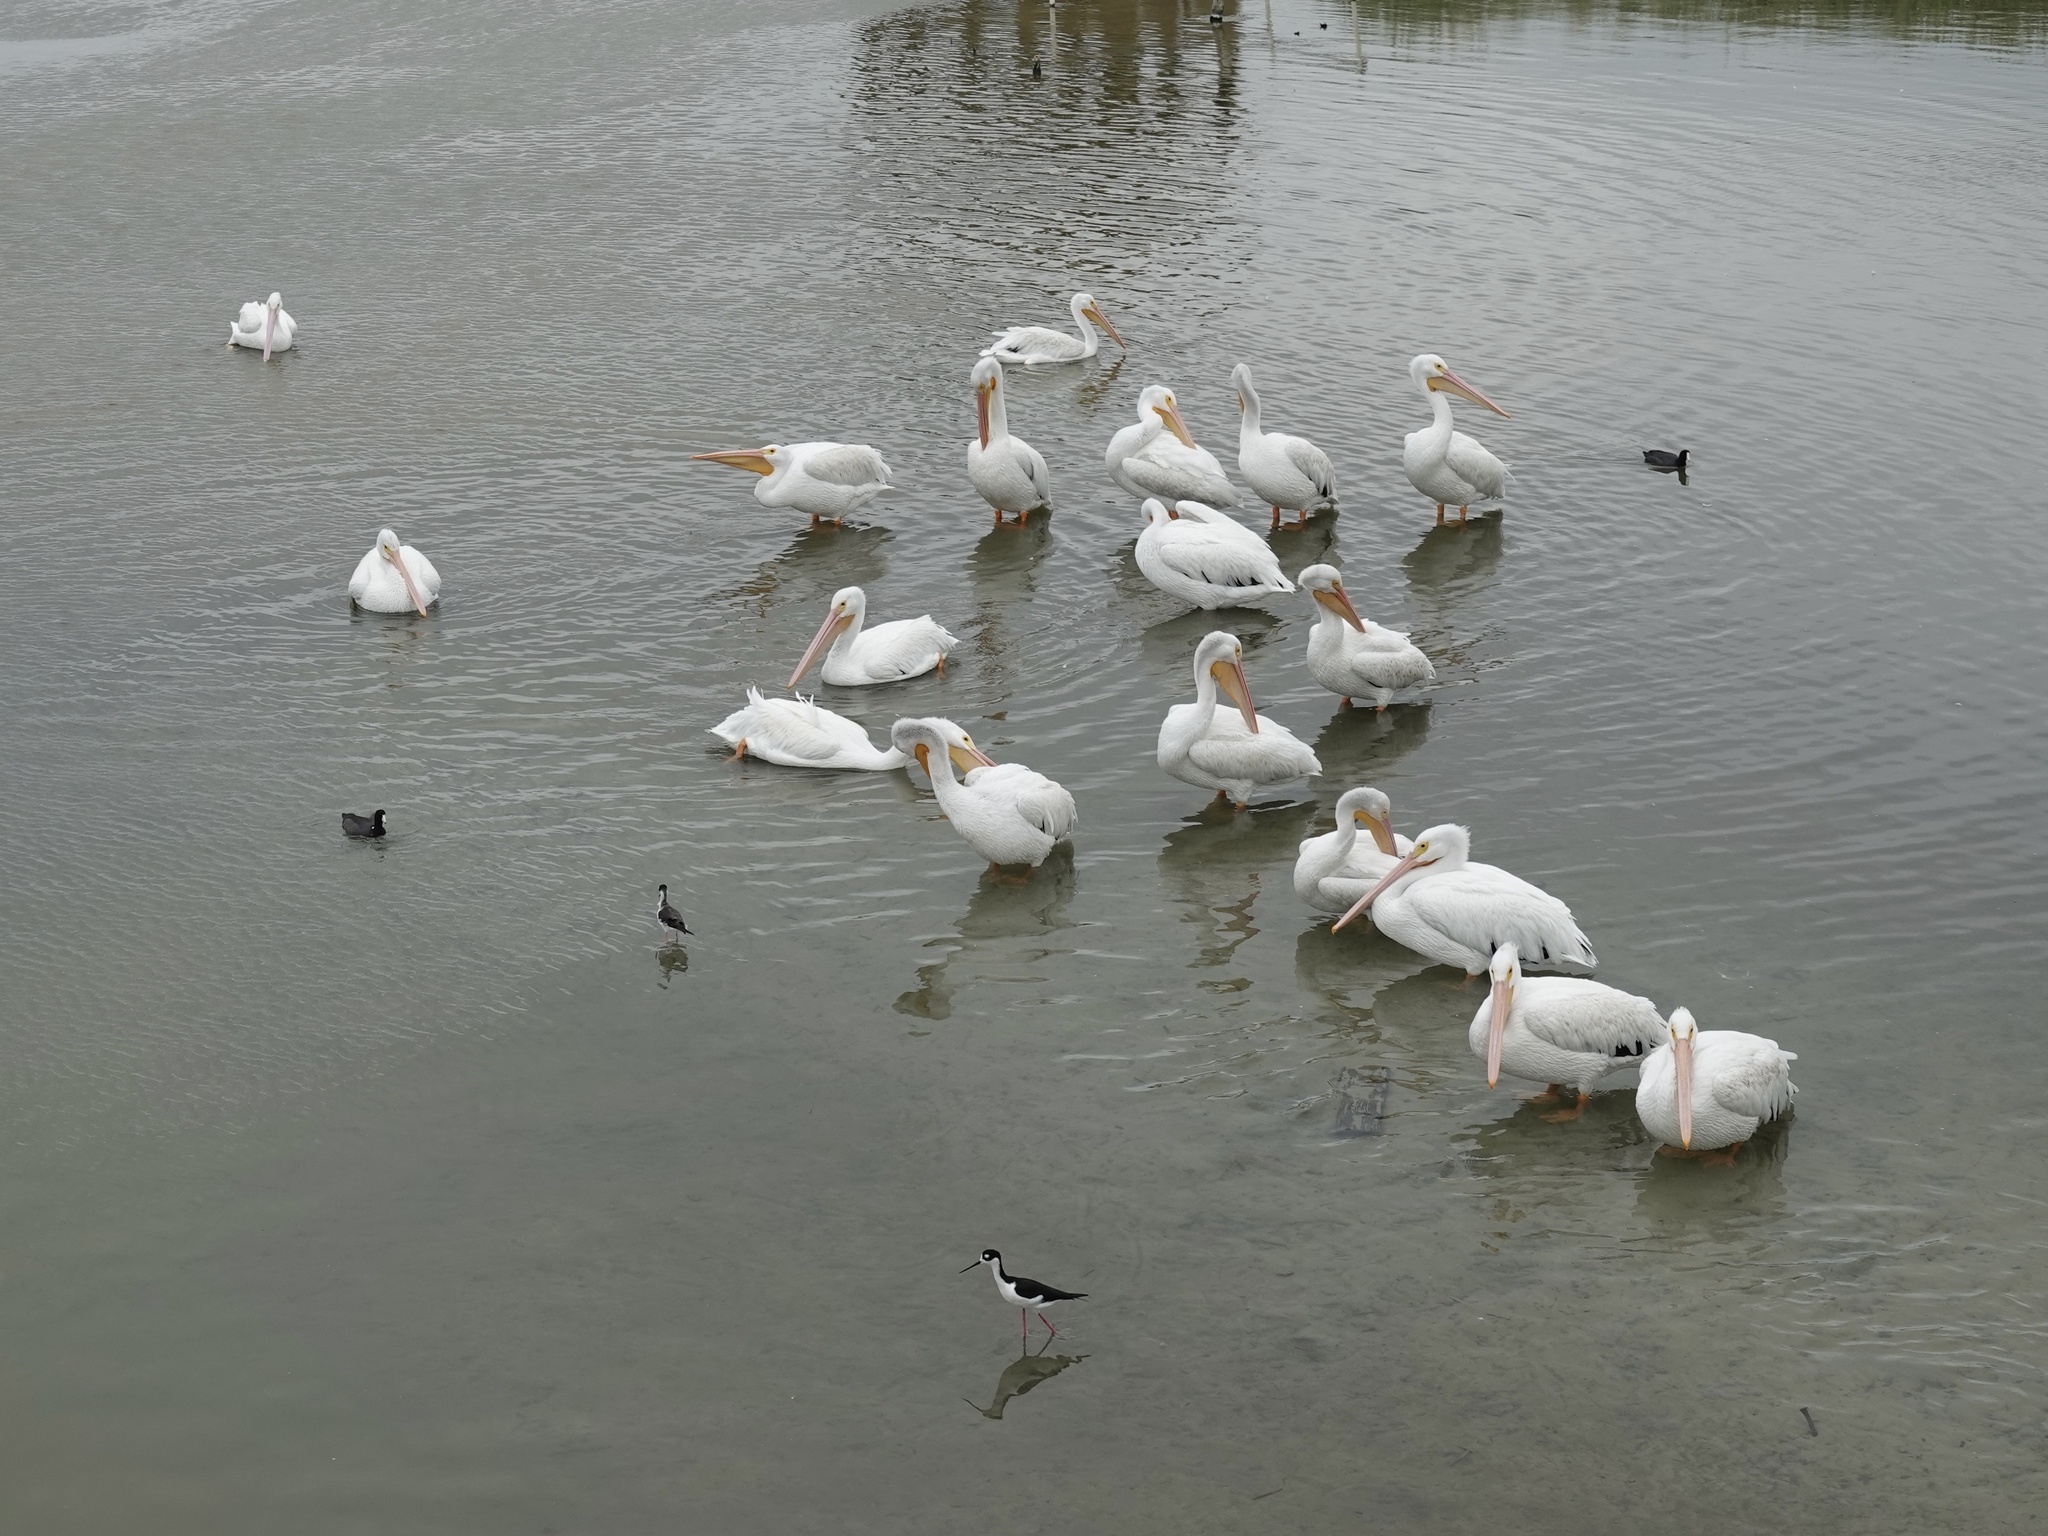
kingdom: Animalia
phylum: Chordata
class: Aves
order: Pelecaniformes
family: Pelecanidae
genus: Pelecanus
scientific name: Pelecanus erythrorhynchos
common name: American white pelican
